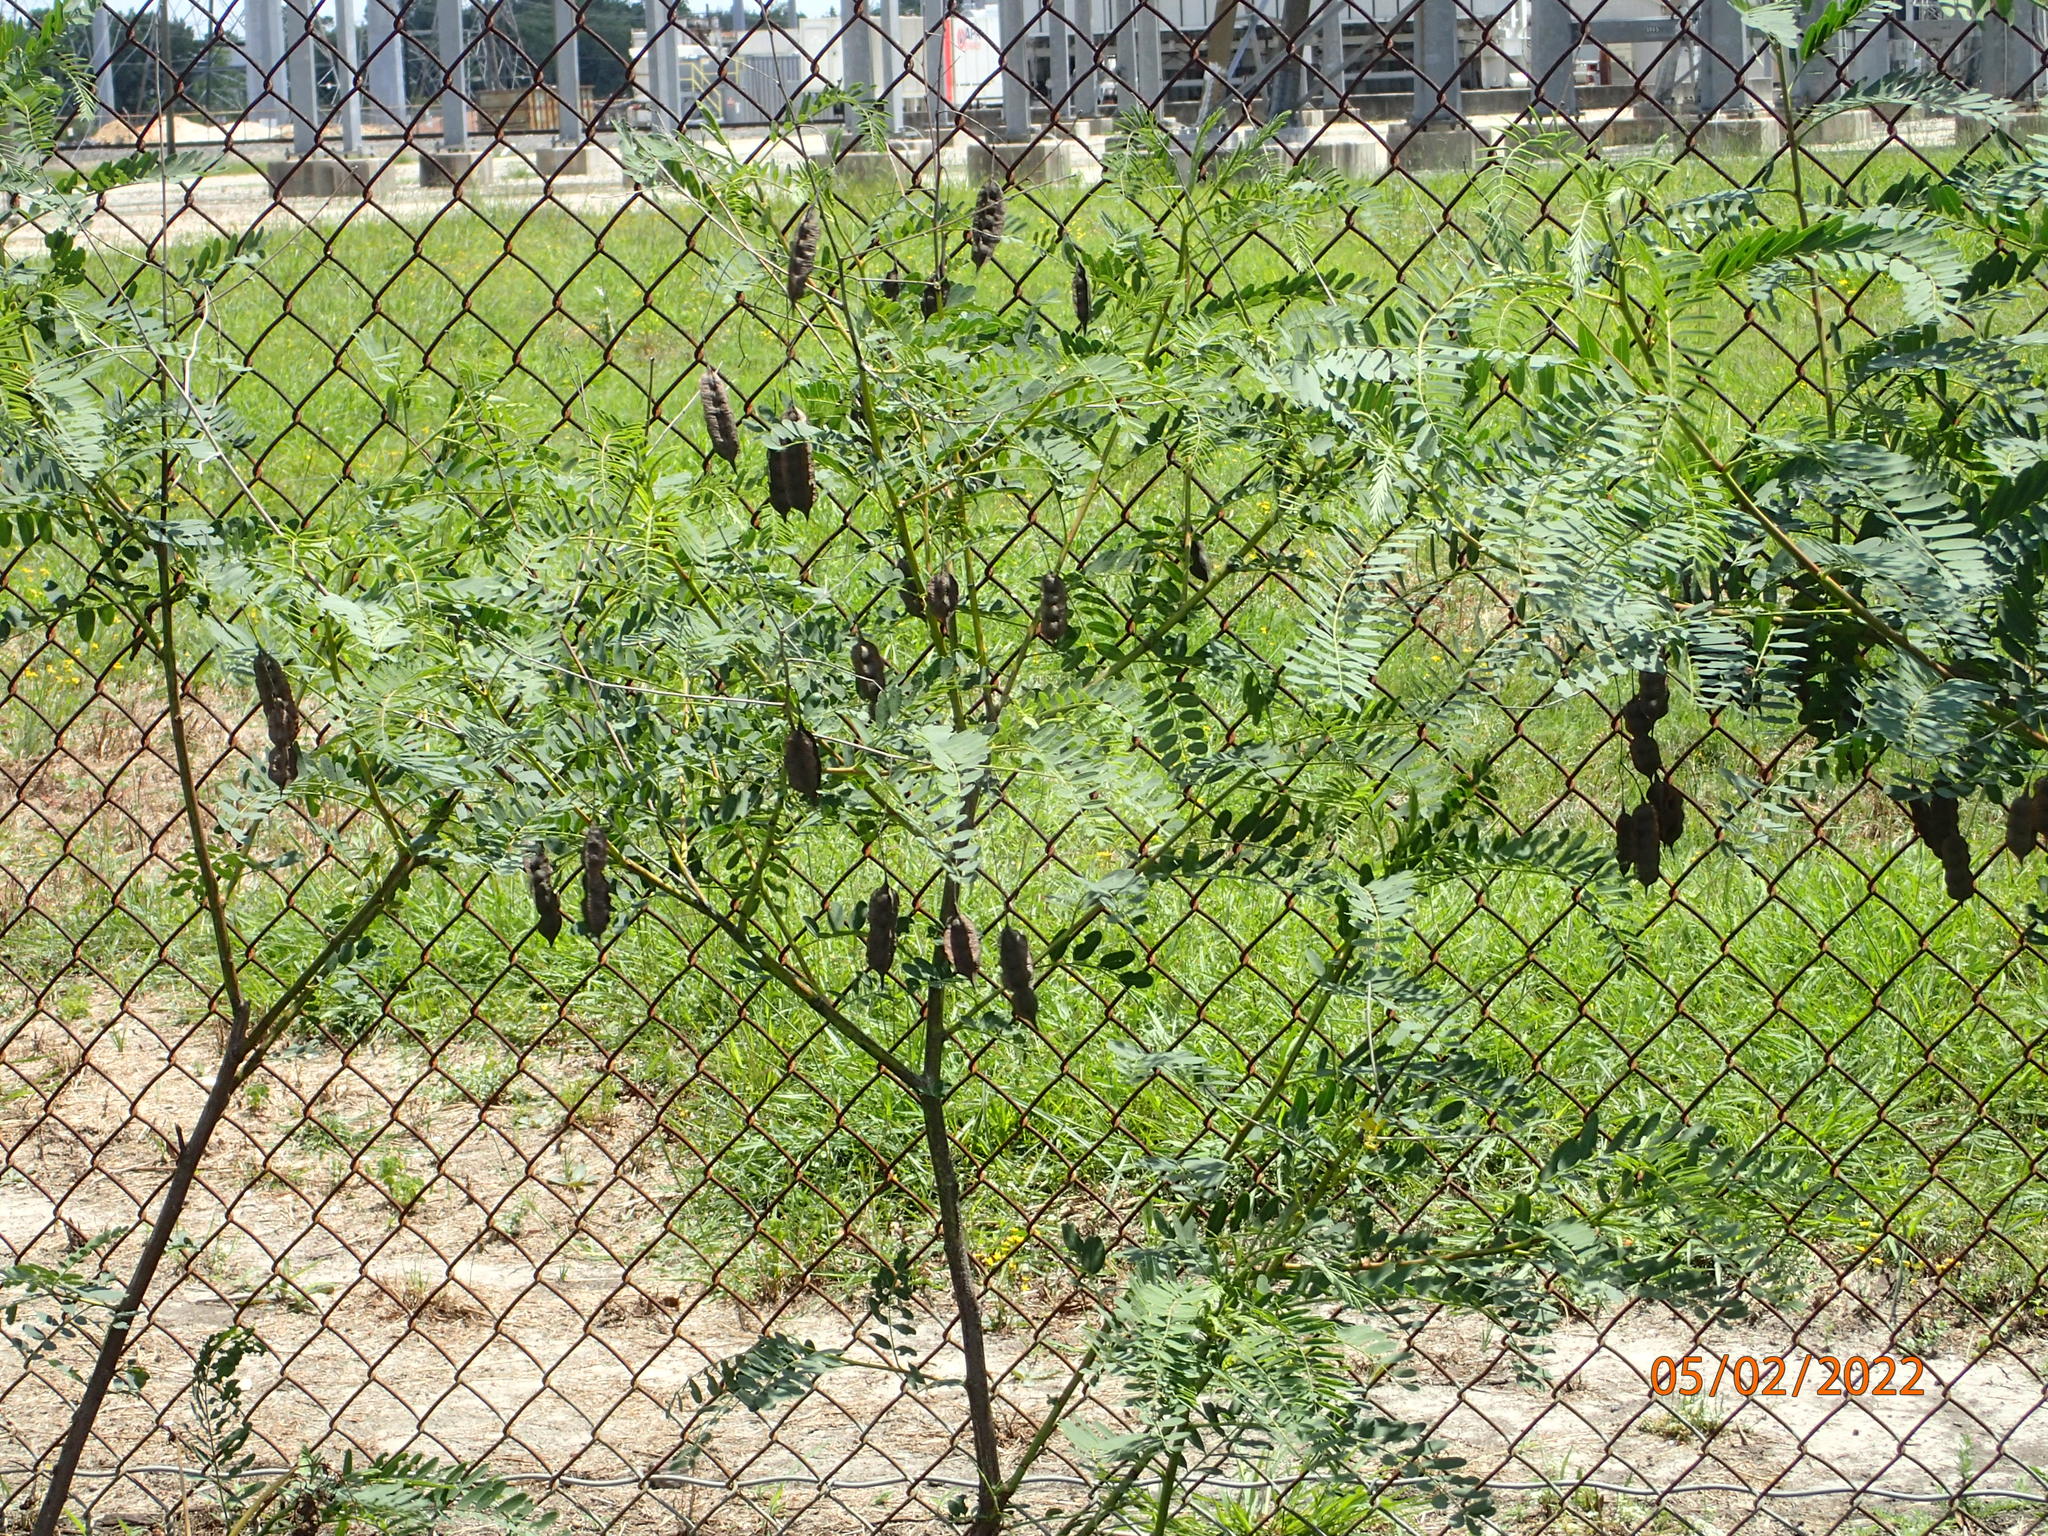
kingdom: Plantae
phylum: Tracheophyta
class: Magnoliopsida
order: Fabales
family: Fabaceae
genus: Sesbania
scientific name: Sesbania drummondii
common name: Poison-bean
